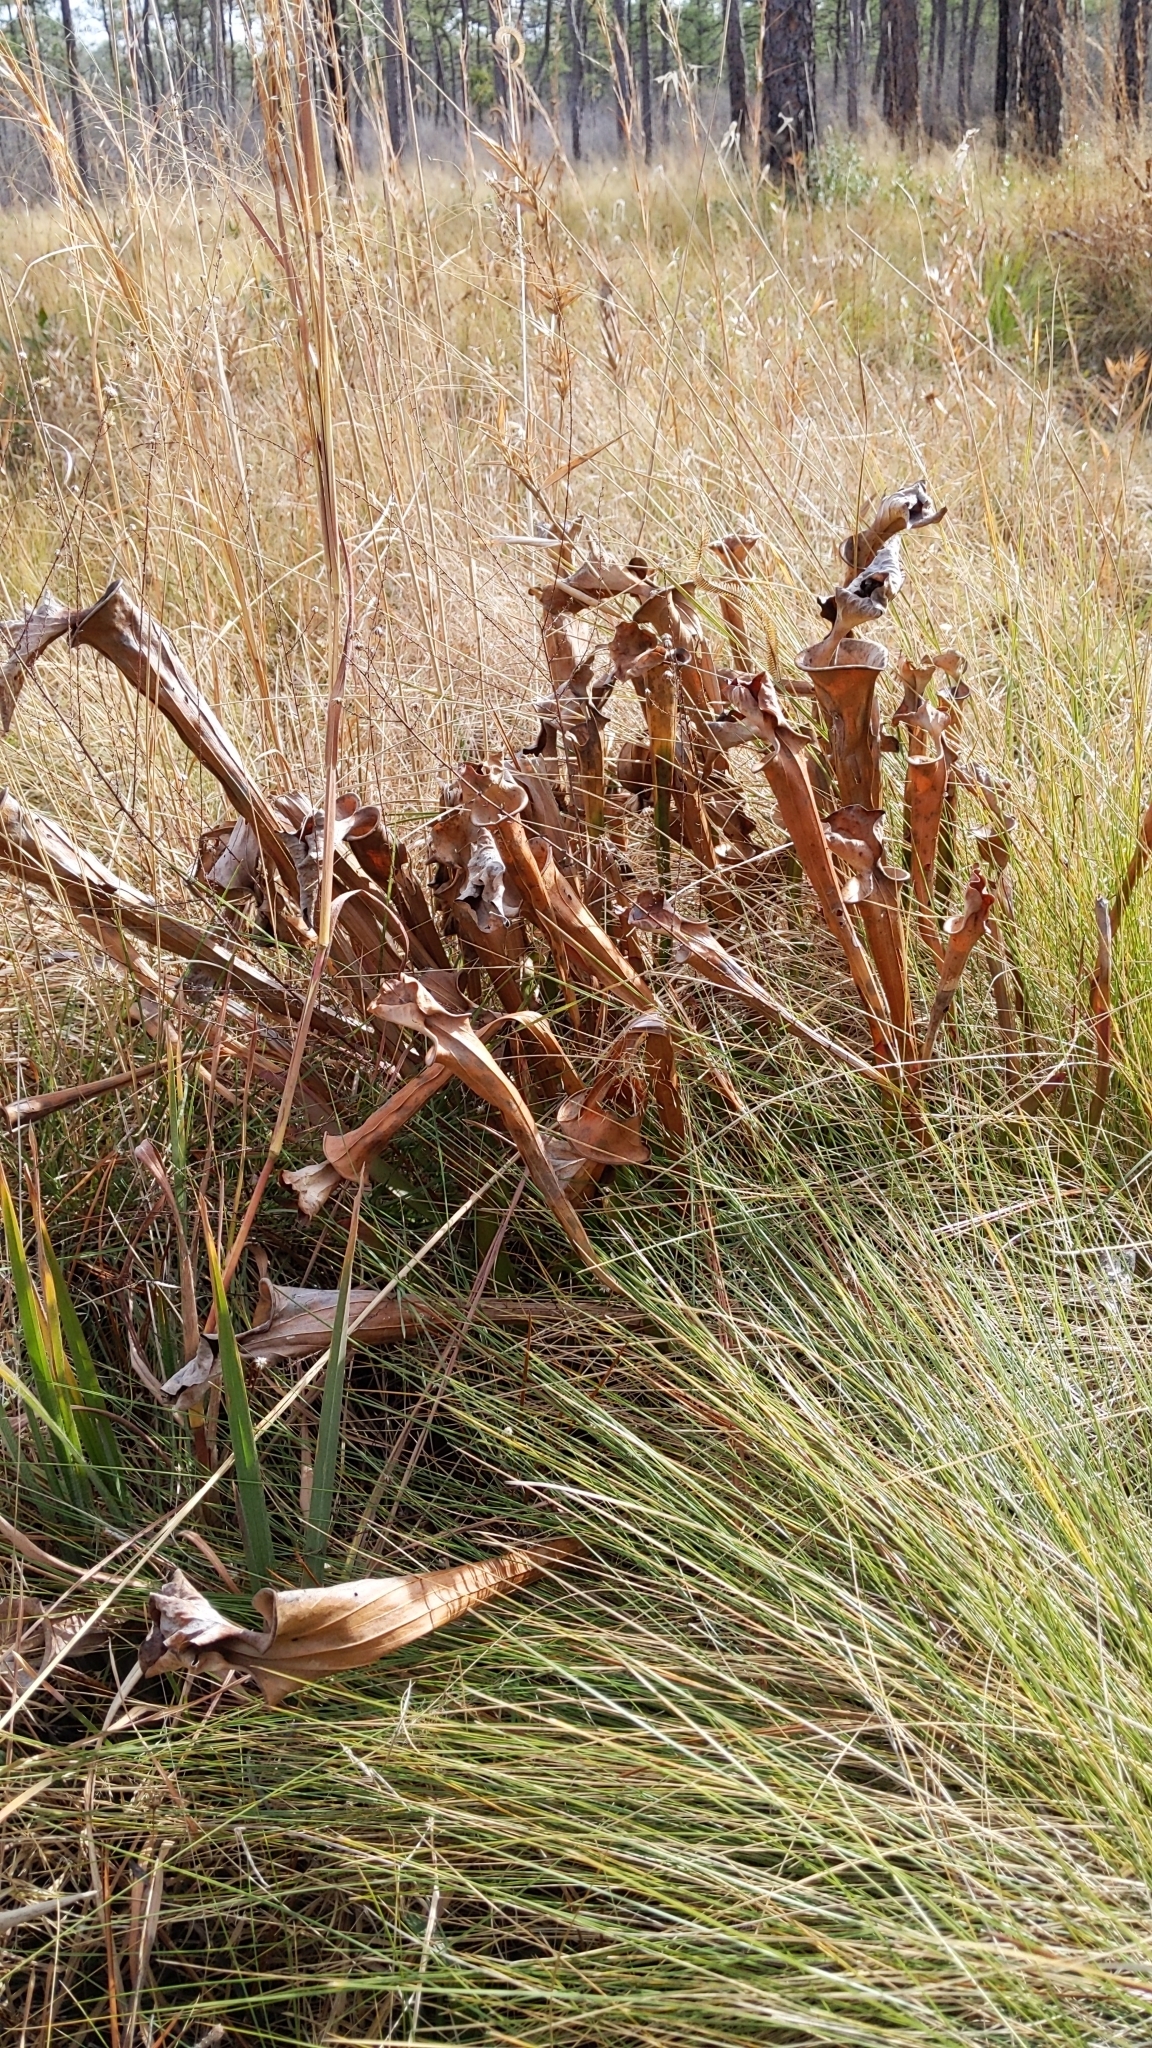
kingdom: Plantae
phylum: Tracheophyta
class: Magnoliopsida
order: Ericales
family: Sarraceniaceae
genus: Sarracenia
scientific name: Sarracenia flava
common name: Trumpets
